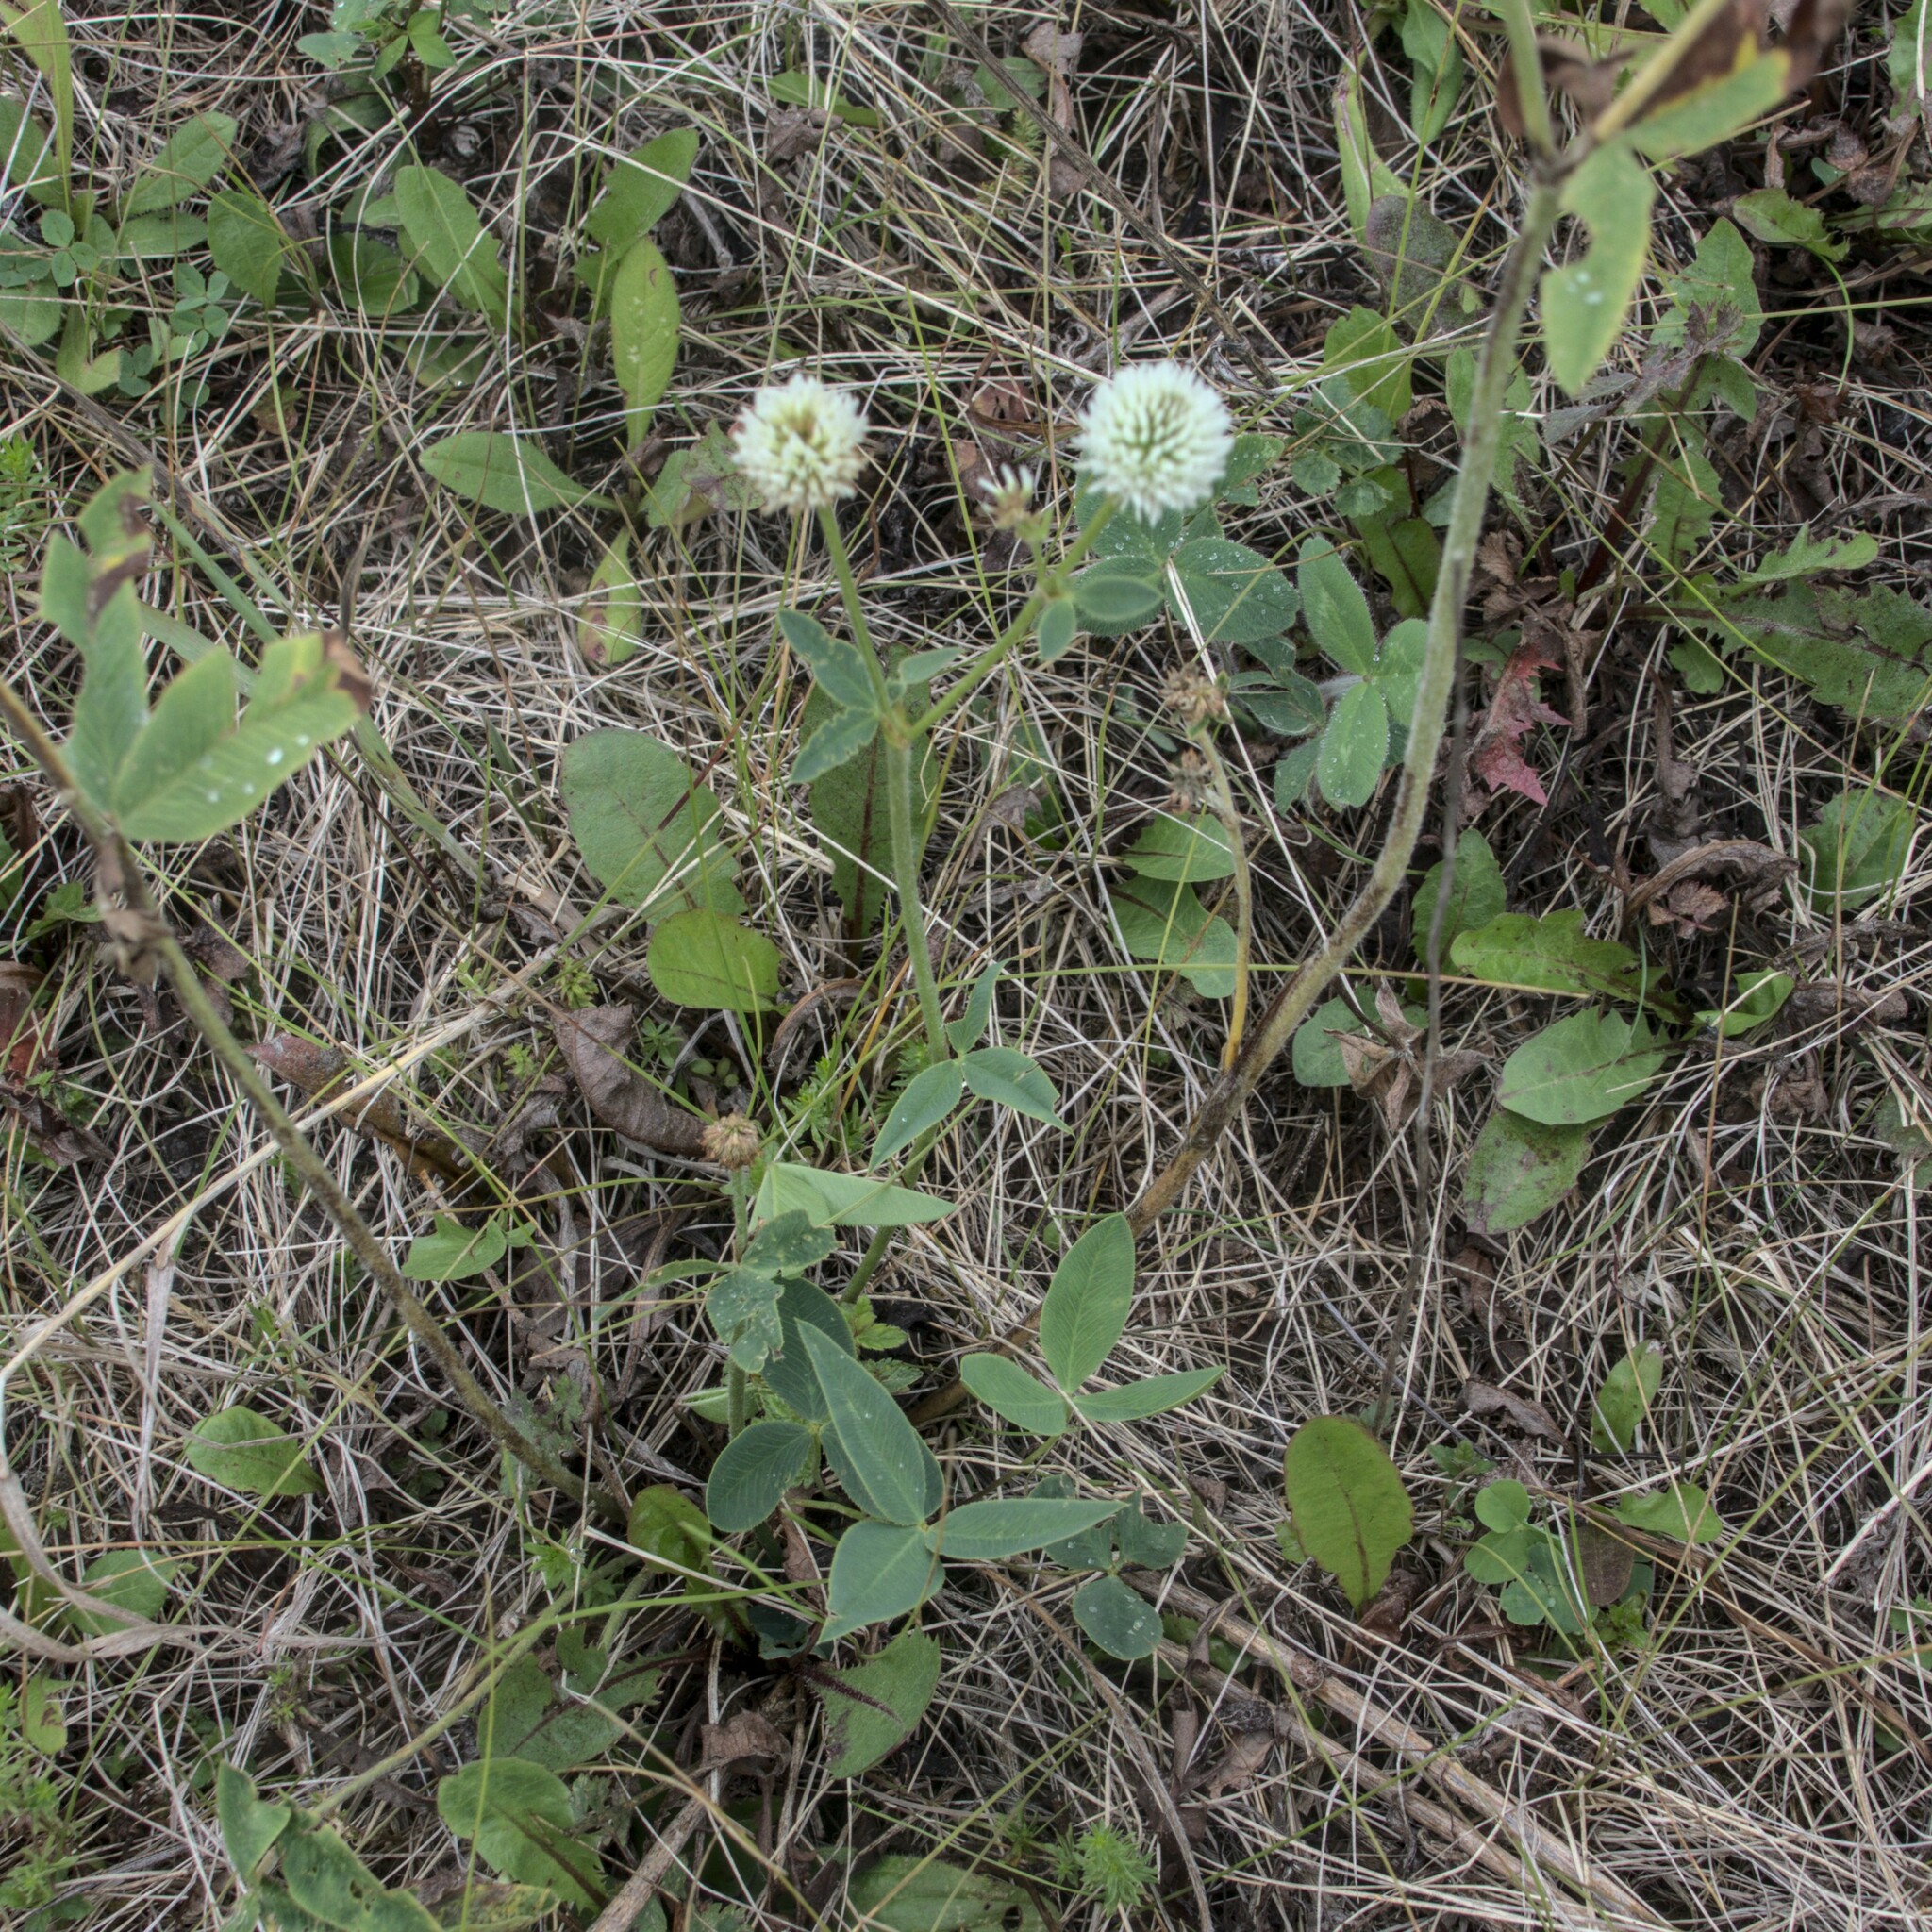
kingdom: Plantae
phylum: Tracheophyta
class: Magnoliopsida
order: Fabales
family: Fabaceae
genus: Trifolium
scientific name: Trifolium montanum
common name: Mountain clover
